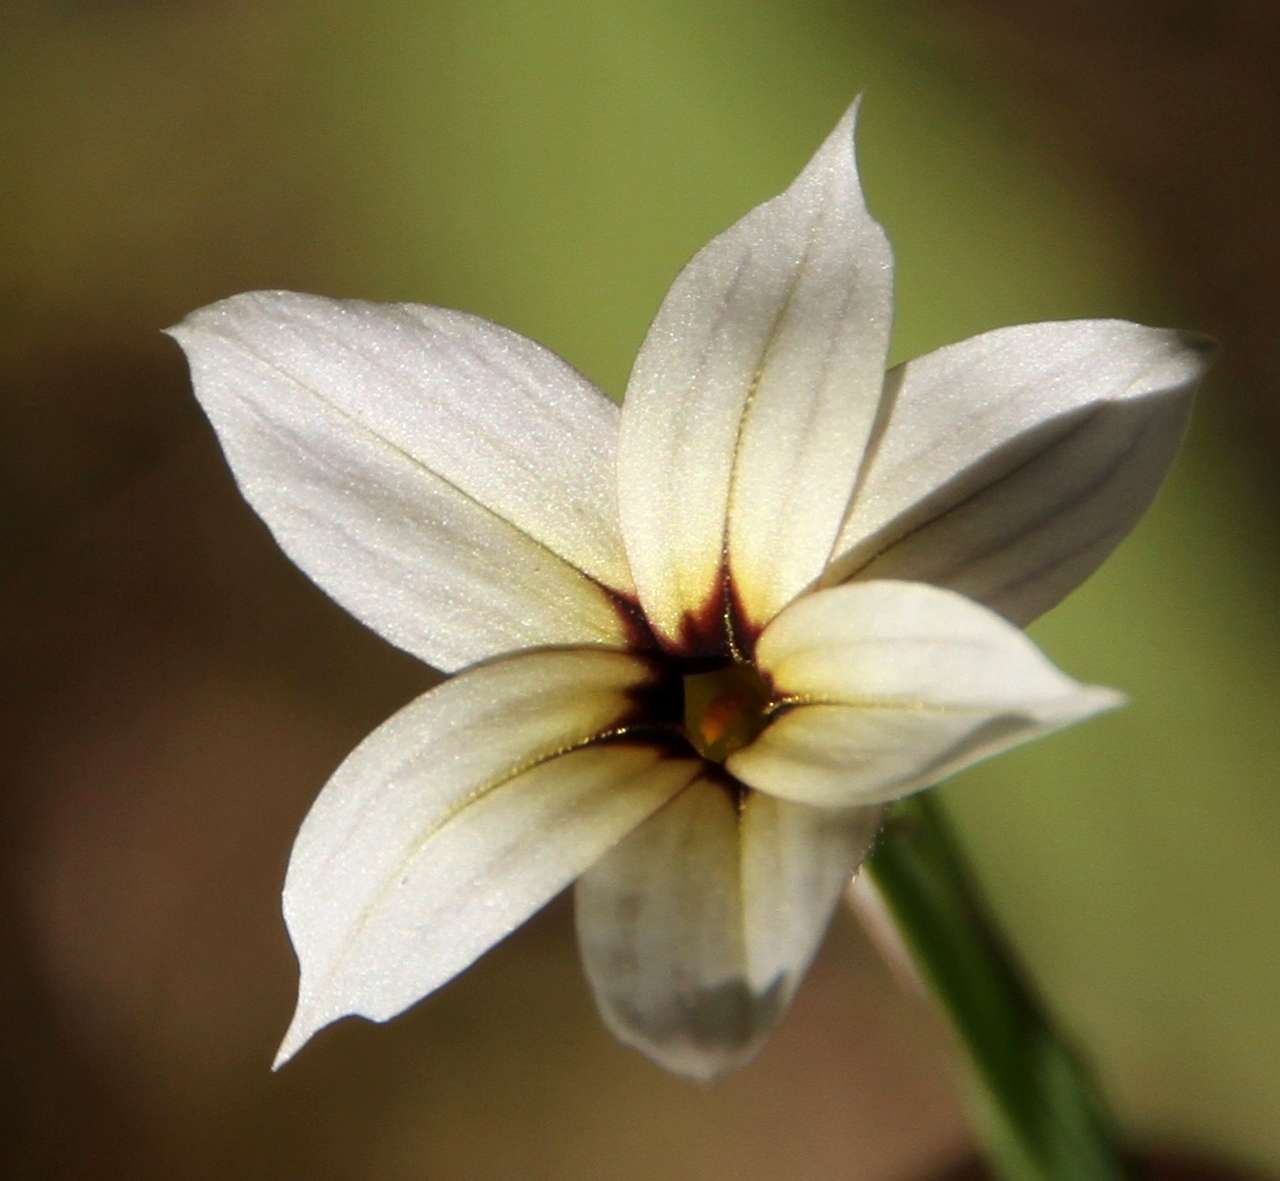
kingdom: Plantae
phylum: Tracheophyta
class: Liliopsida
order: Asparagales
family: Iridaceae
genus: Sisyrinchium
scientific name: Sisyrinchium micranthum
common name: Bermuda pigroot
